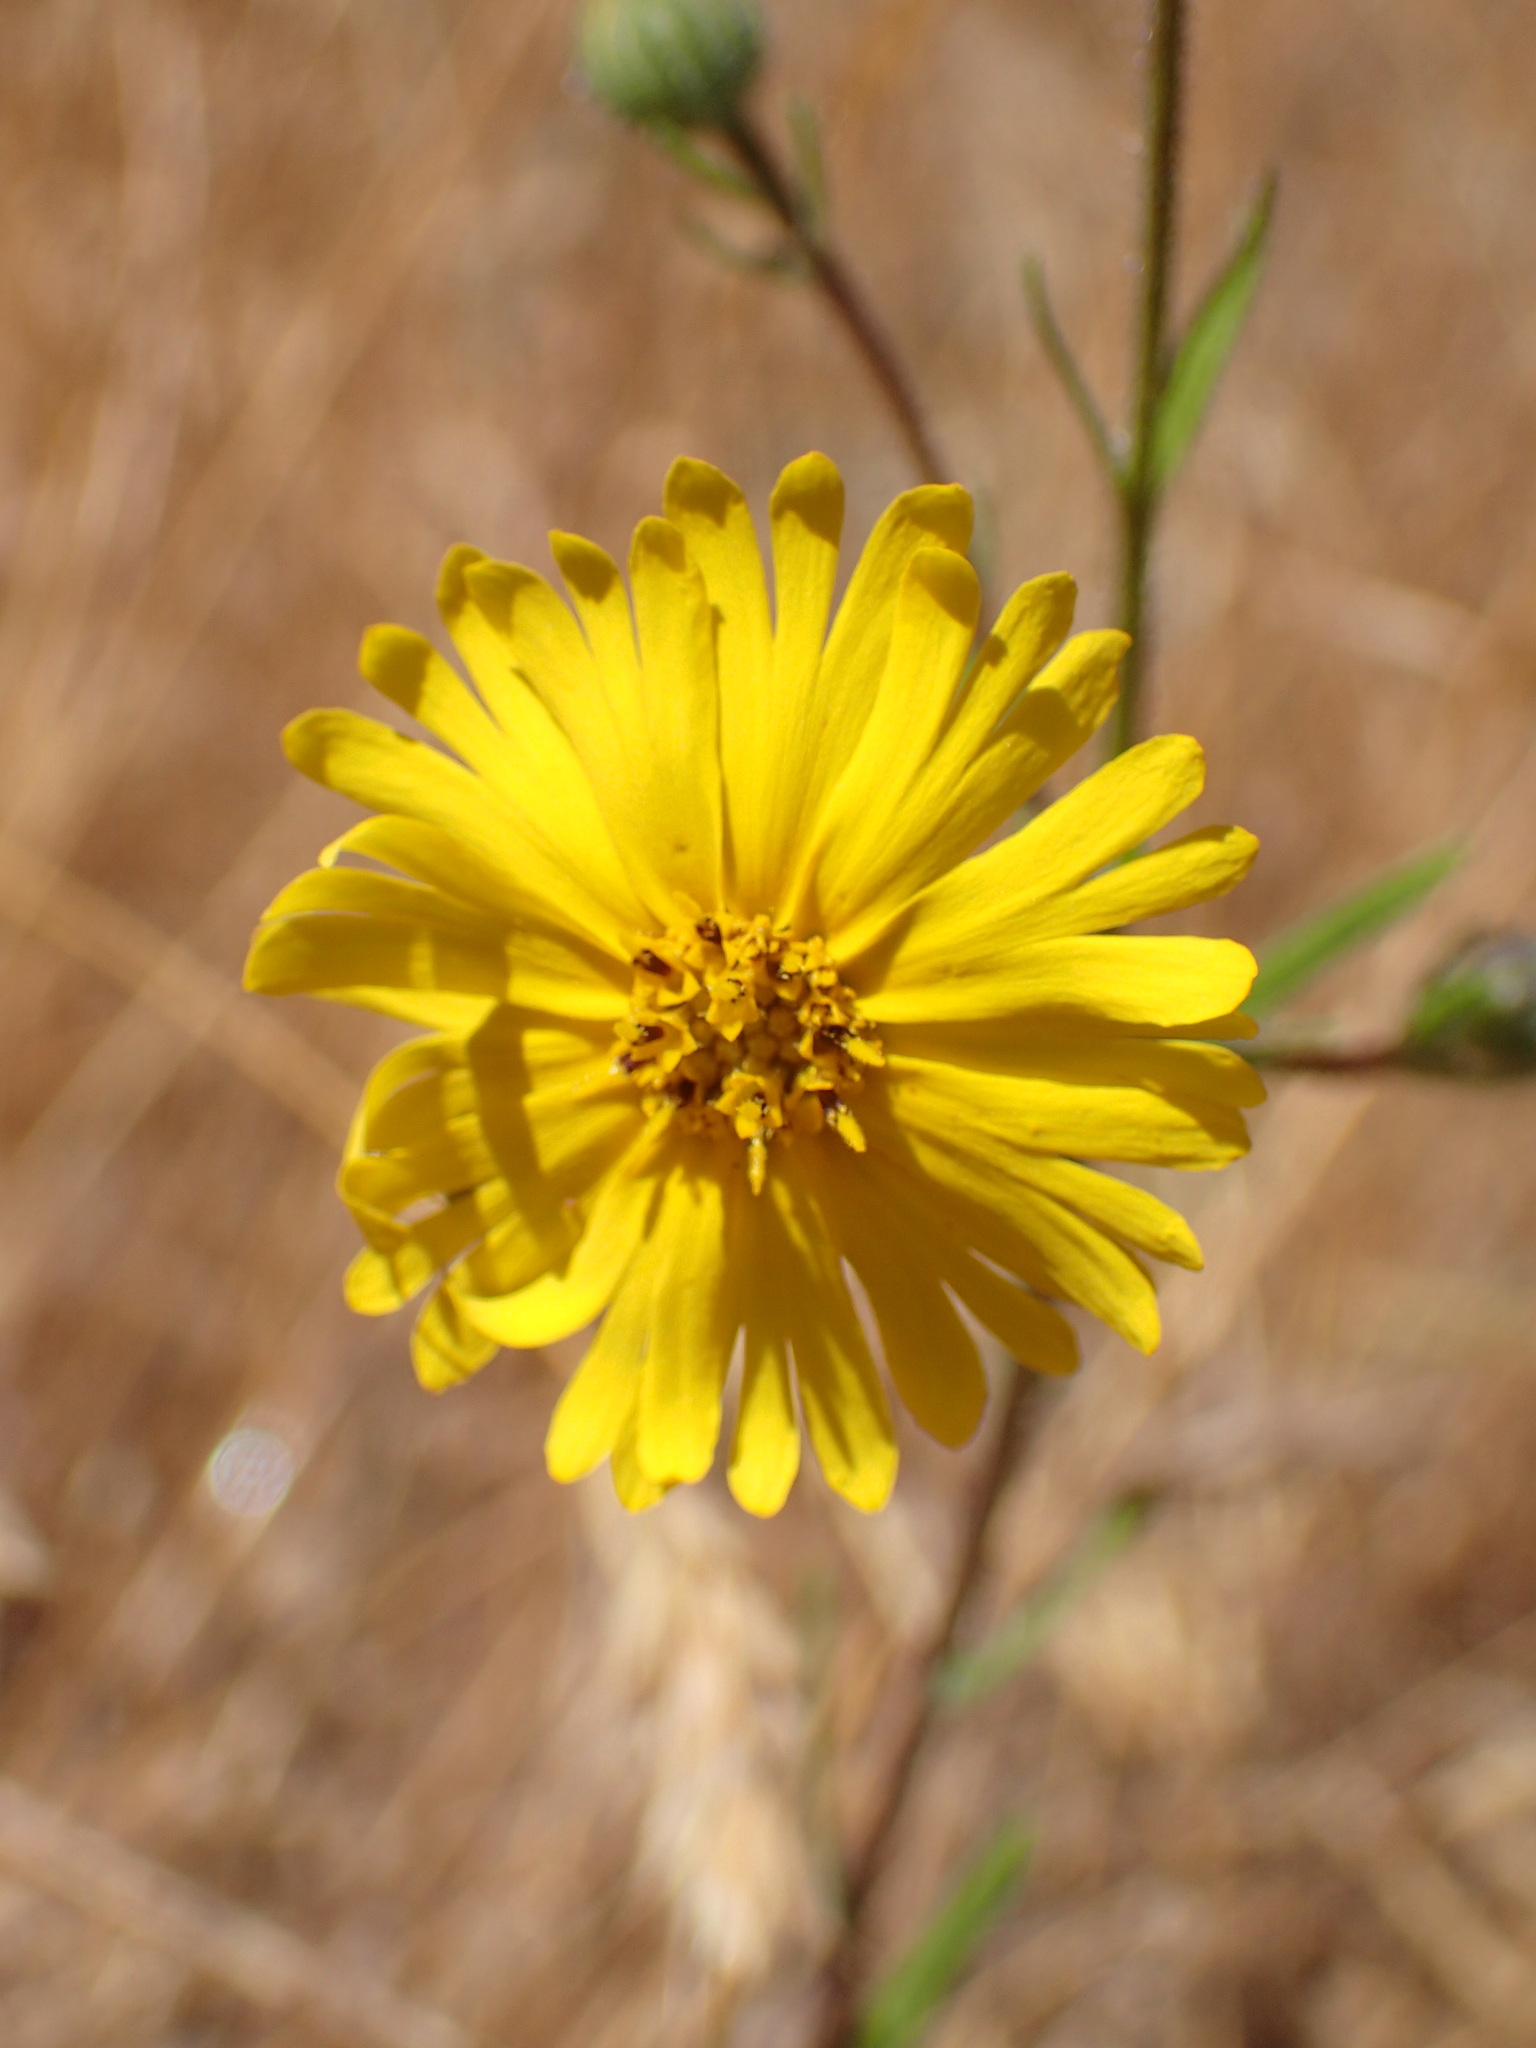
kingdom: Plantae
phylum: Tracheophyta
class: Magnoliopsida
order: Asterales
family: Asteraceae
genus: Madia
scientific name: Madia elegans
